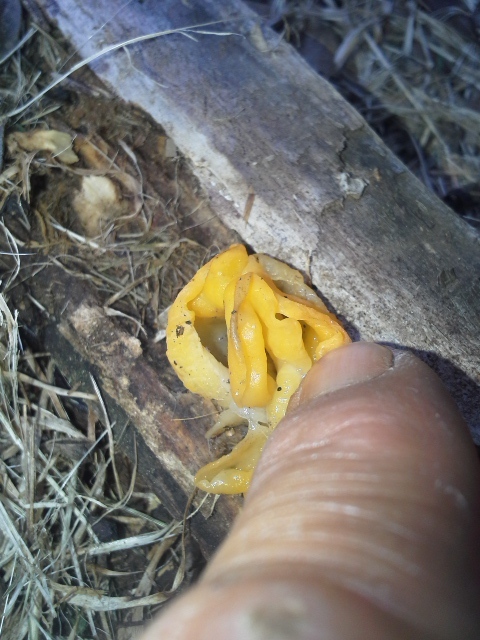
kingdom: Fungi
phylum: Basidiomycota
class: Tremellomycetes
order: Tremellales
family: Tremellaceae
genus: Tremella
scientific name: Tremella mesenterica
